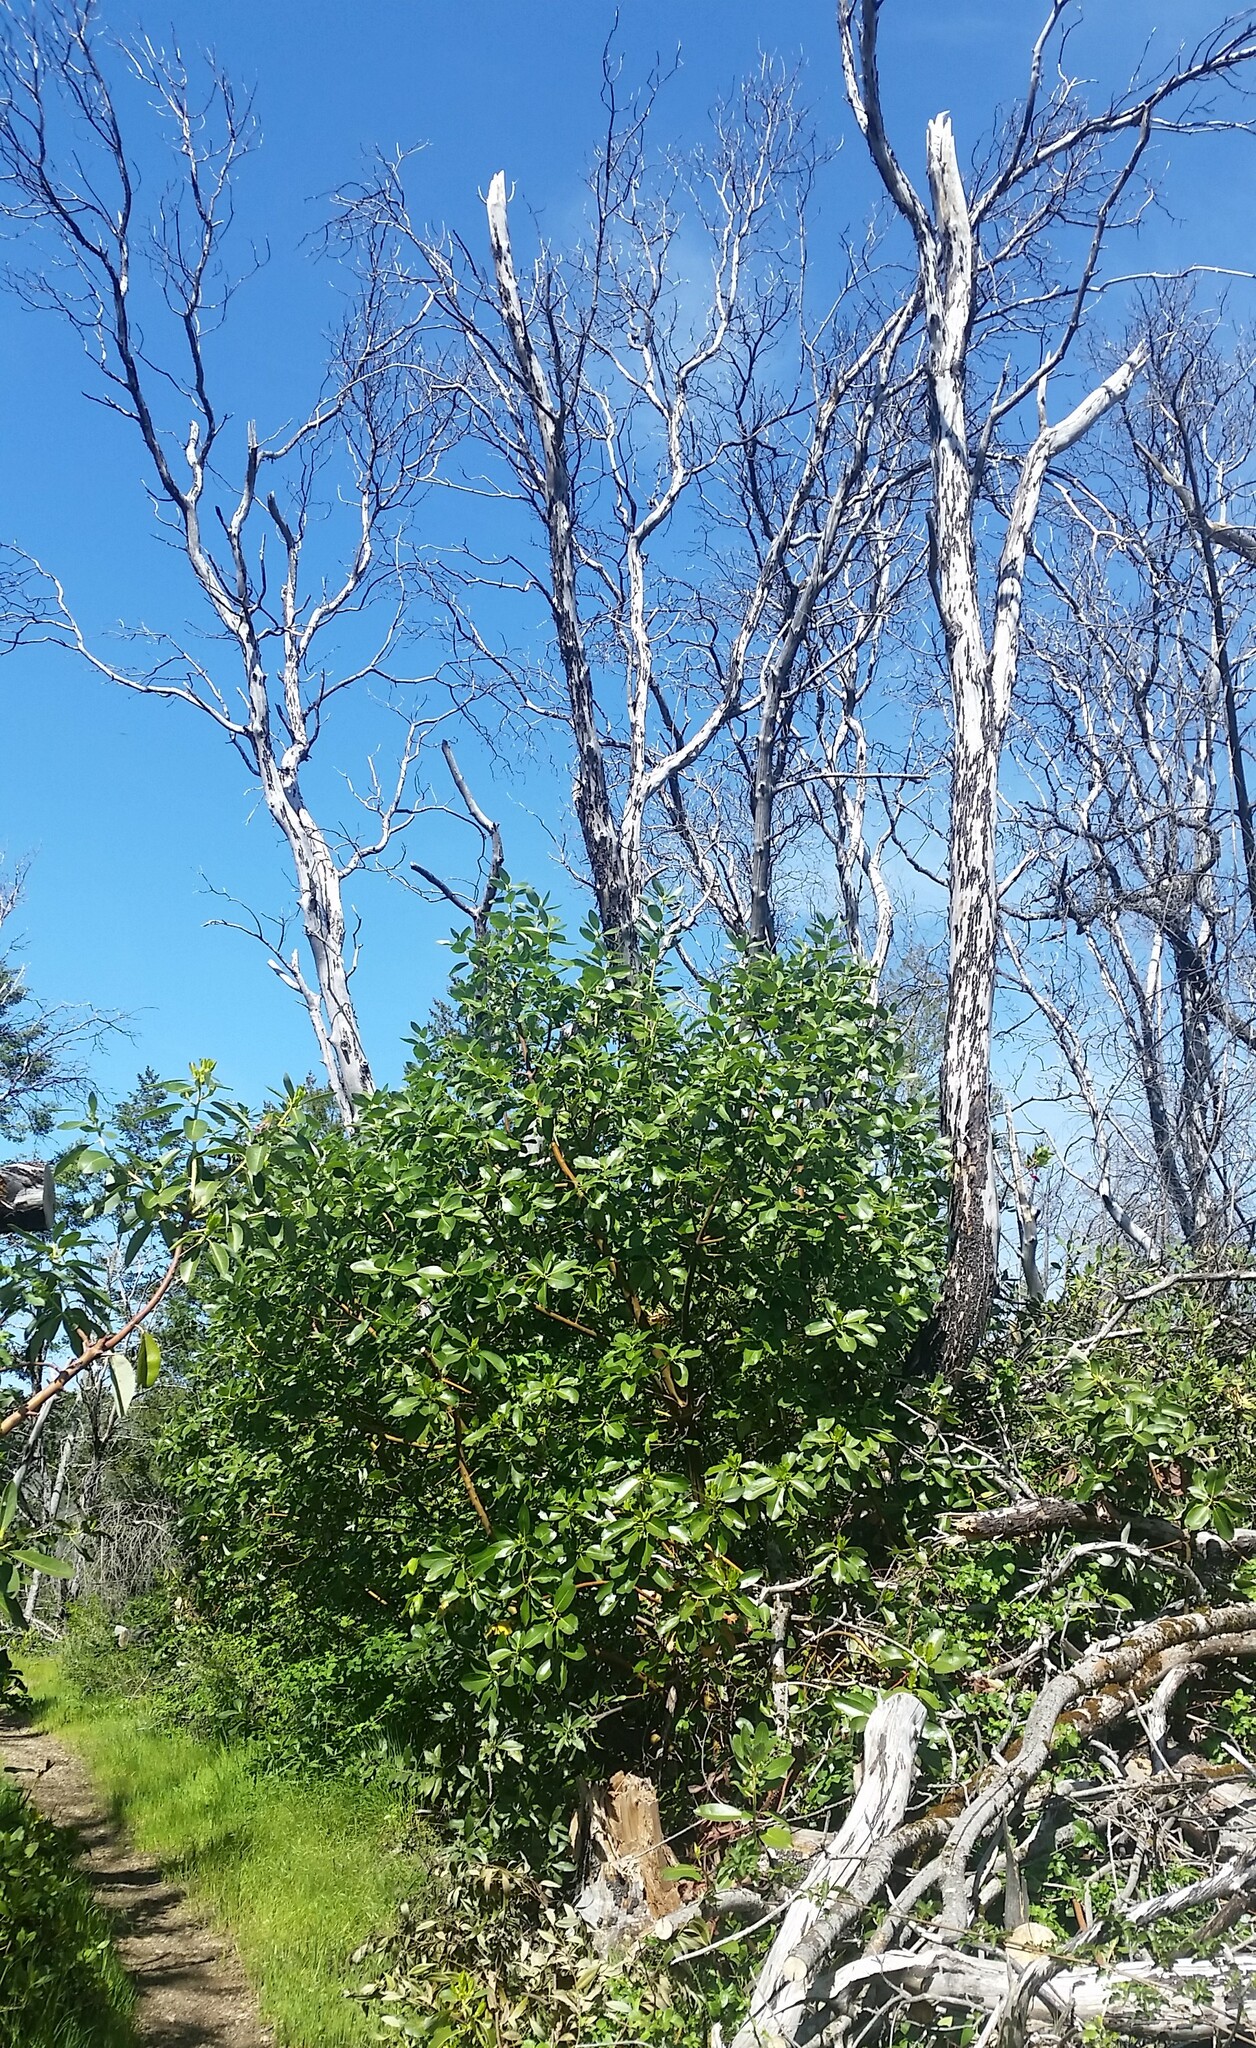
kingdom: Plantae
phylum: Tracheophyta
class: Magnoliopsida
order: Ericales
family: Ericaceae
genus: Arbutus
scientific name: Arbutus menziesii
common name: Pacific madrone
